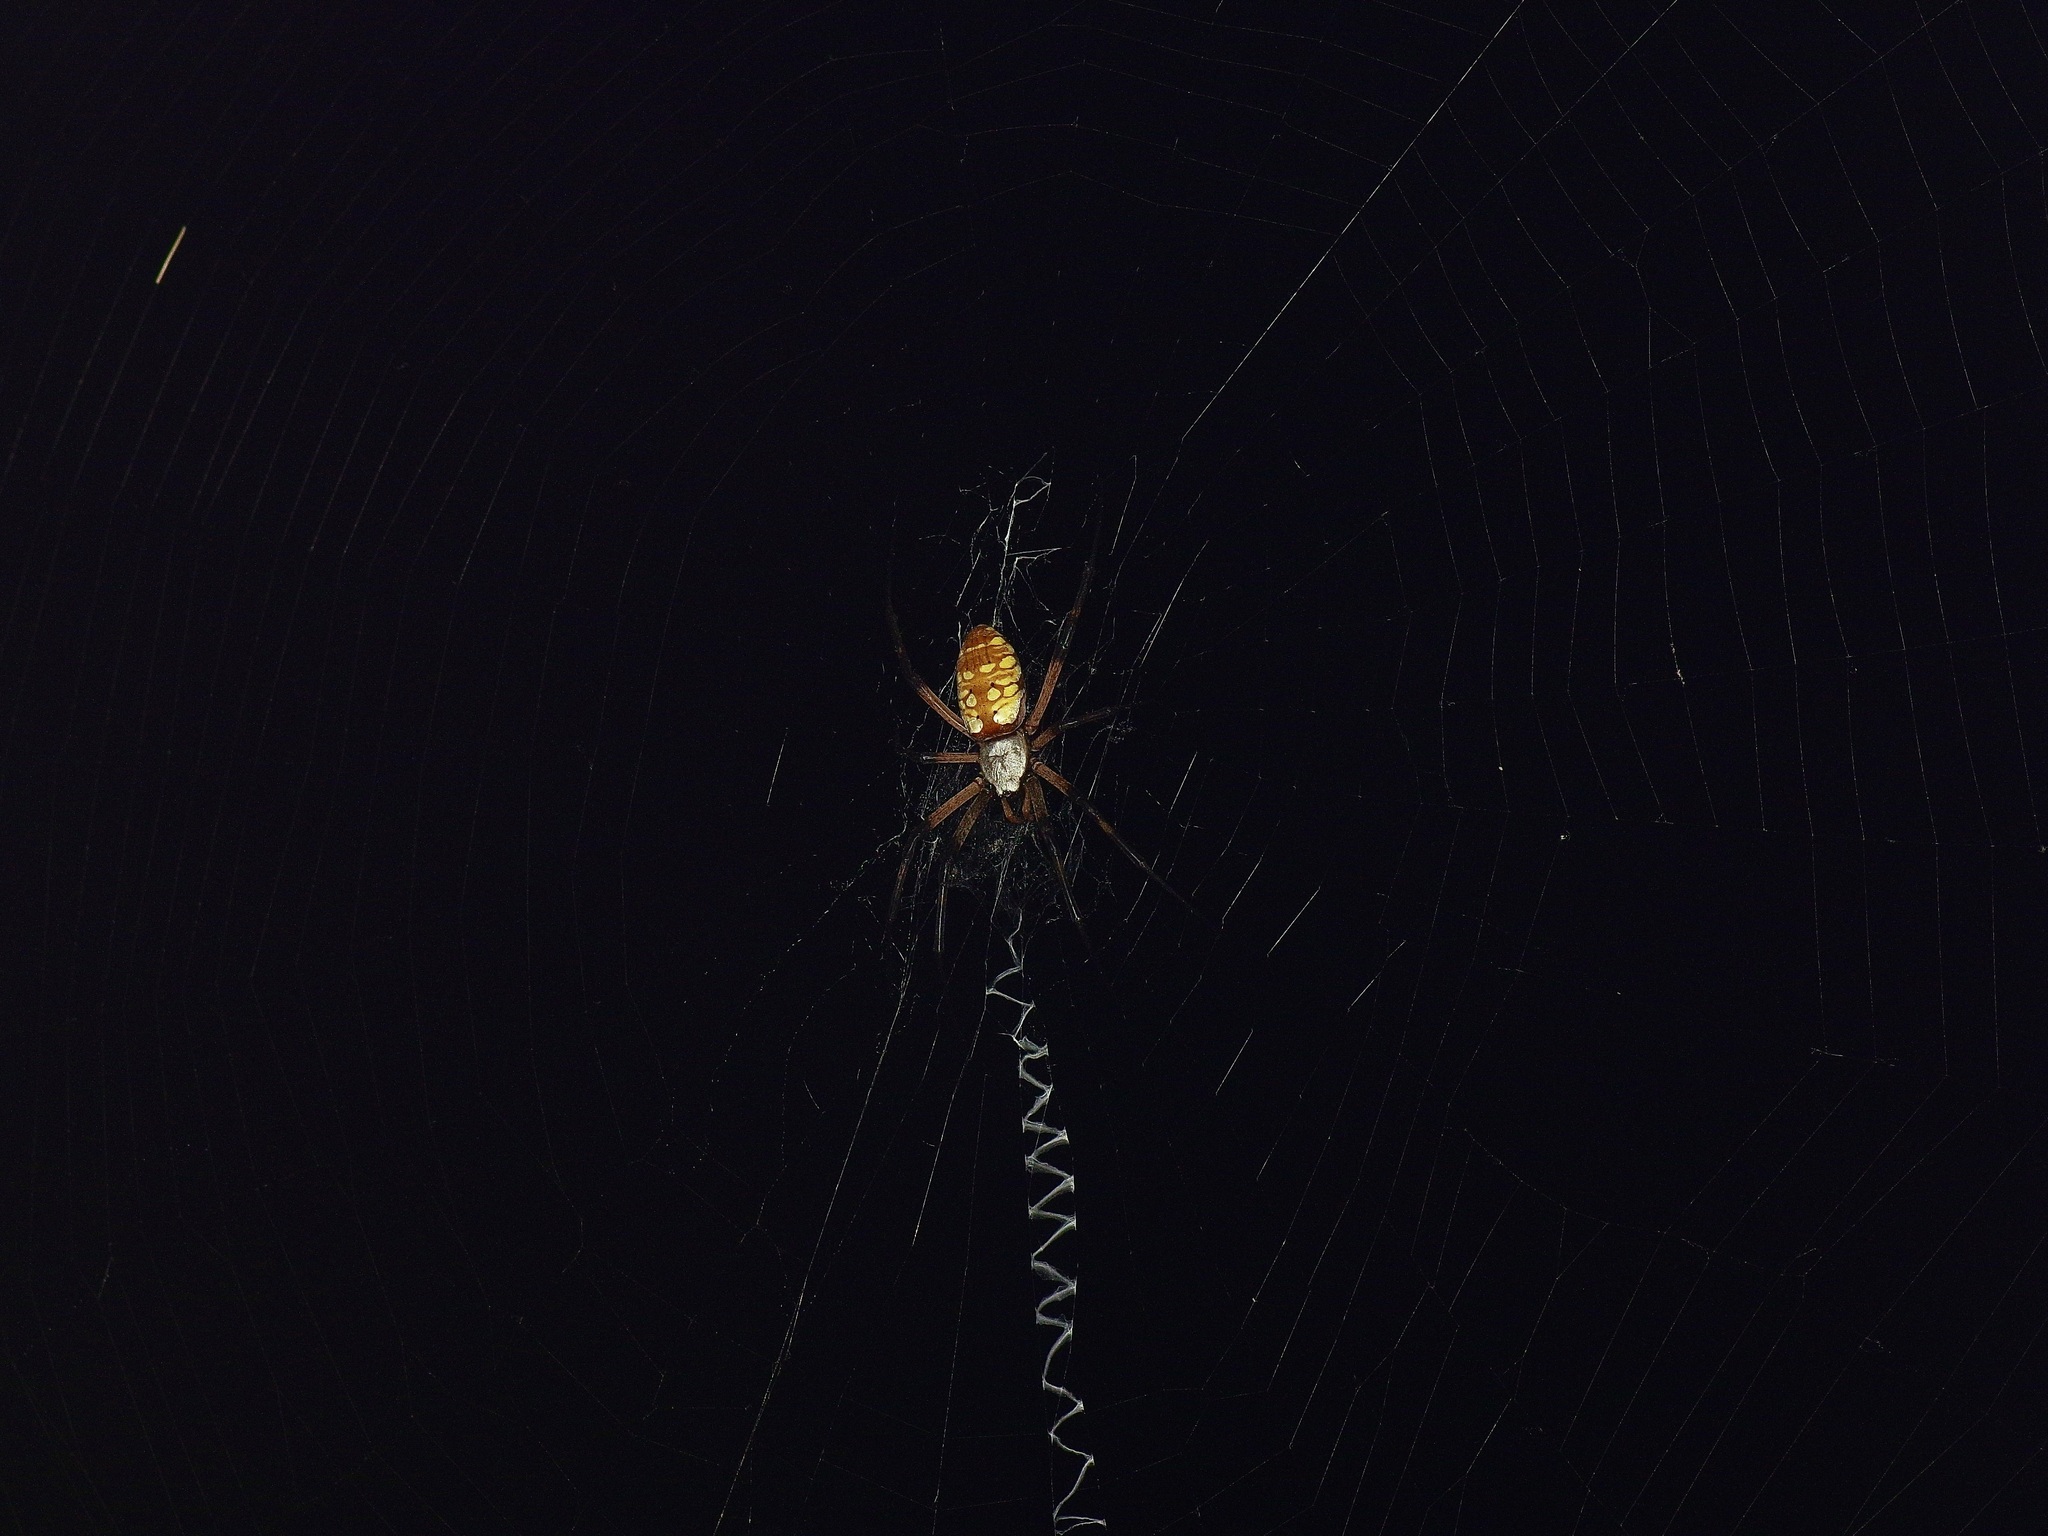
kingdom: Animalia
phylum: Arthropoda
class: Arachnida
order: Araneae
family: Araneidae
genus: Argiope
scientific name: Argiope aurantia
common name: Orb weavers
